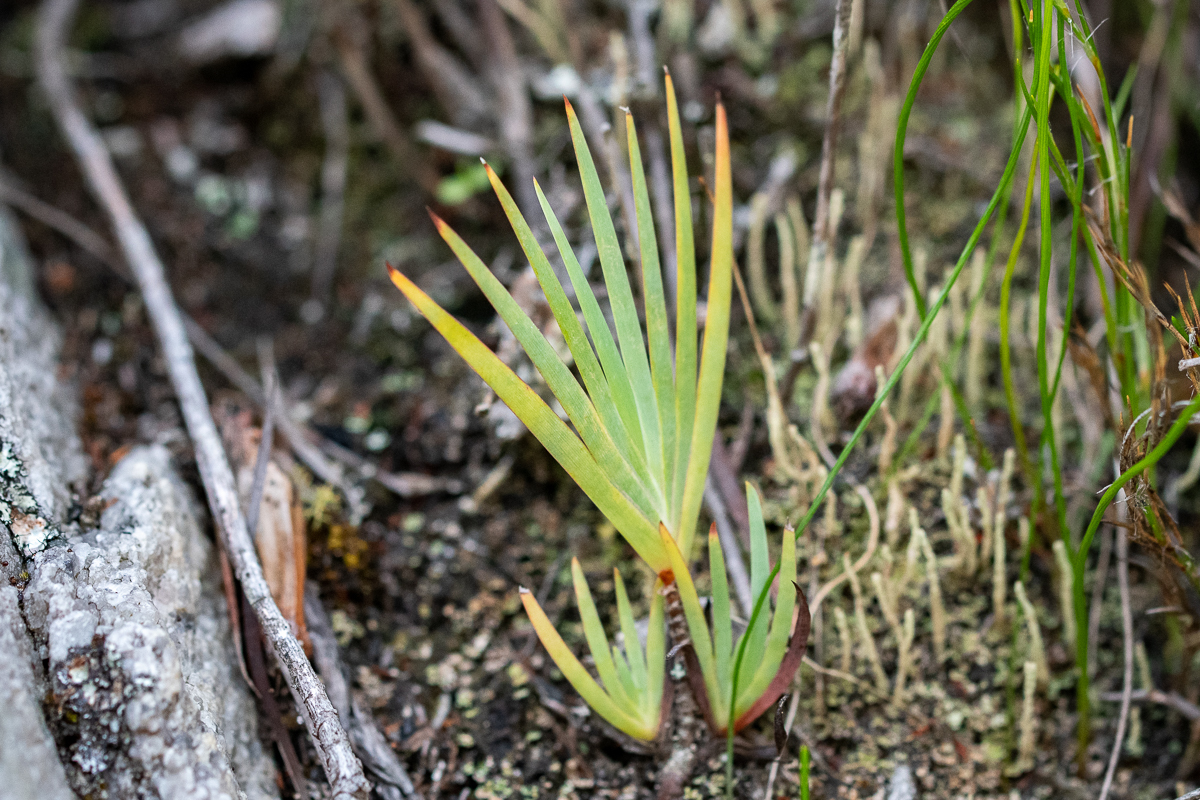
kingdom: Plantae
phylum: Tracheophyta
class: Liliopsida
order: Asparagales
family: Iridaceae
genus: Nivenia
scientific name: Nivenia stokoei
